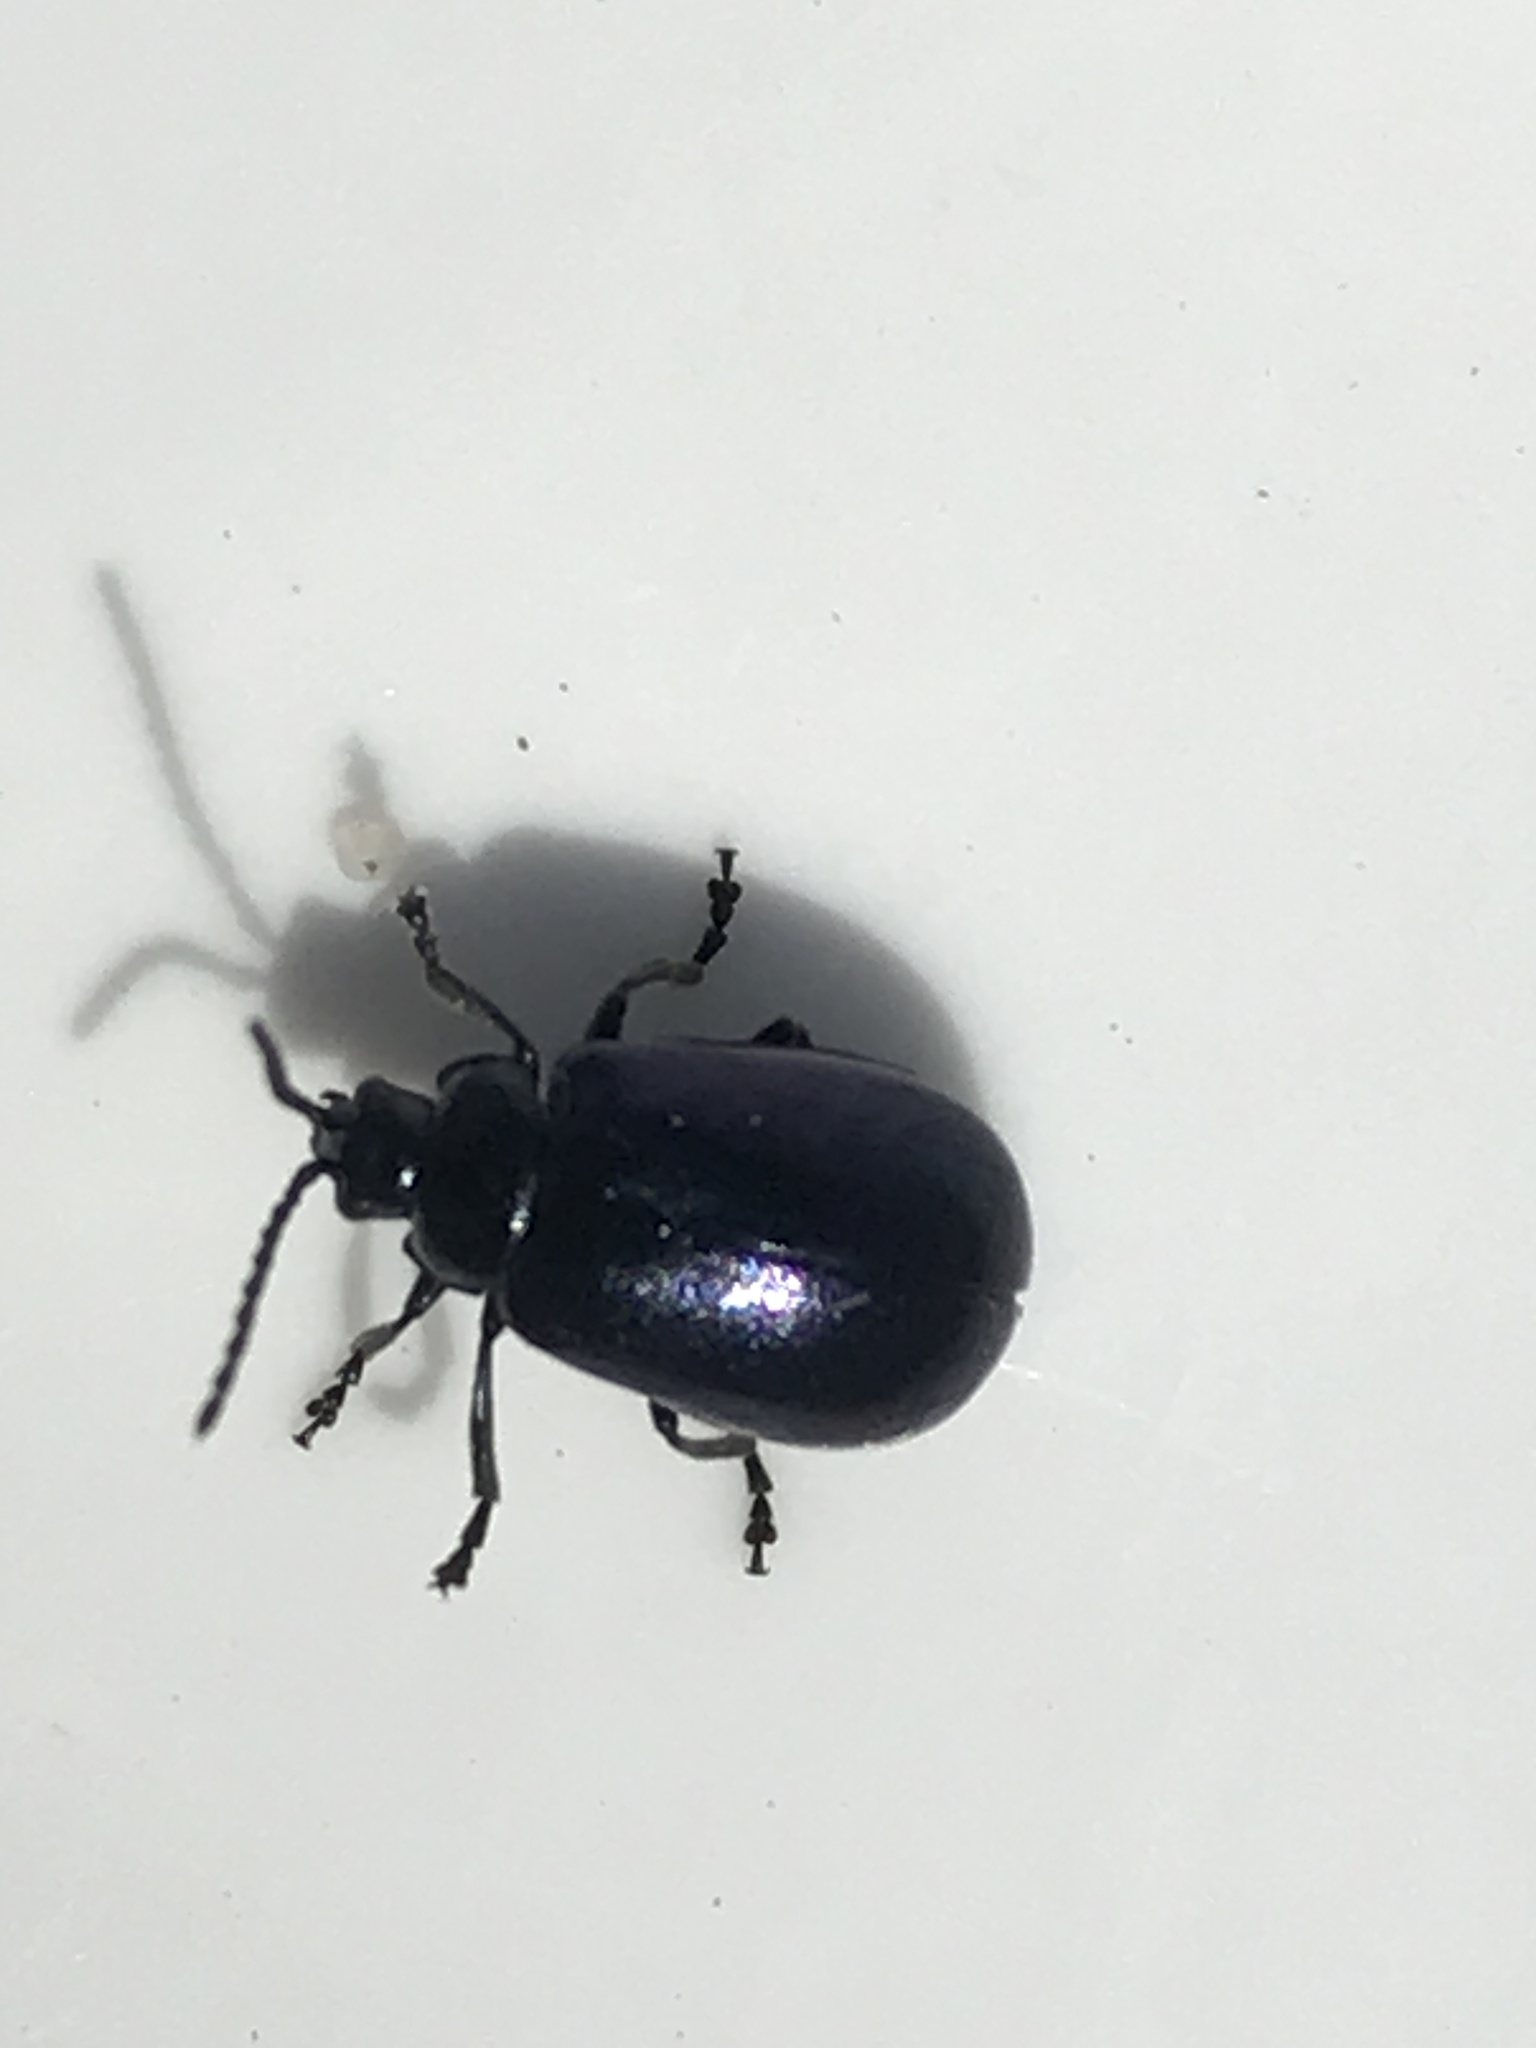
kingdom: Animalia
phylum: Arthropoda
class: Insecta
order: Coleoptera
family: Chrysomelidae
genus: Agelastica
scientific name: Agelastica alni
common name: Alder leaf beetle
